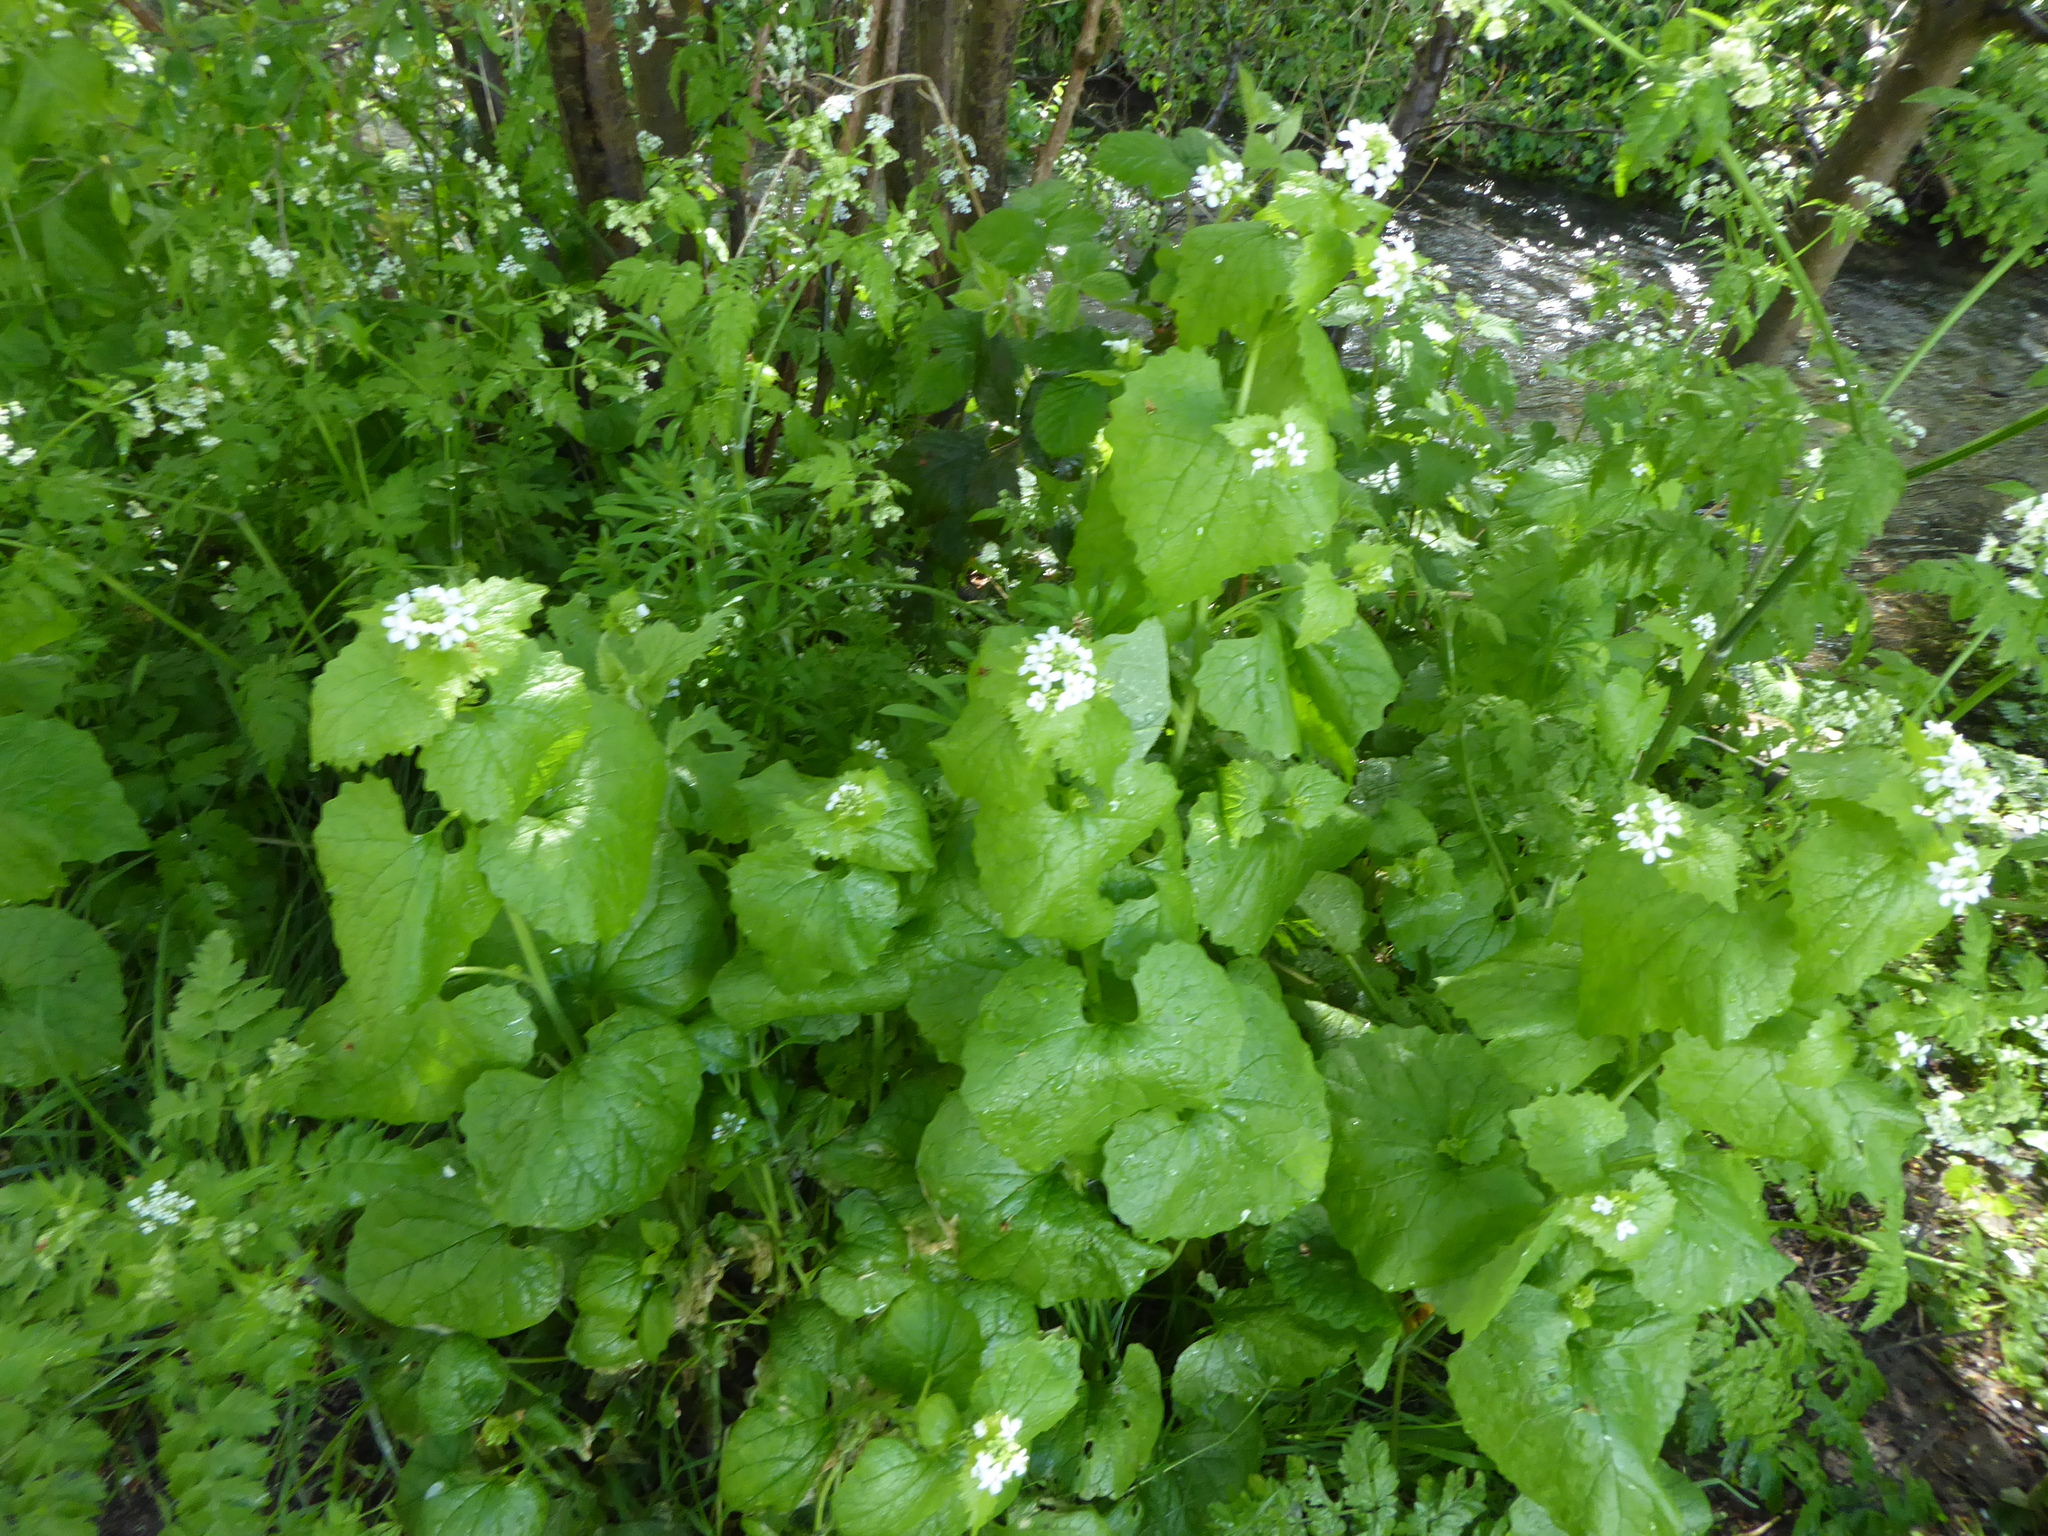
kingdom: Plantae
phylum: Tracheophyta
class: Magnoliopsida
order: Brassicales
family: Brassicaceae
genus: Alliaria
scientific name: Alliaria petiolata
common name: Garlic mustard
